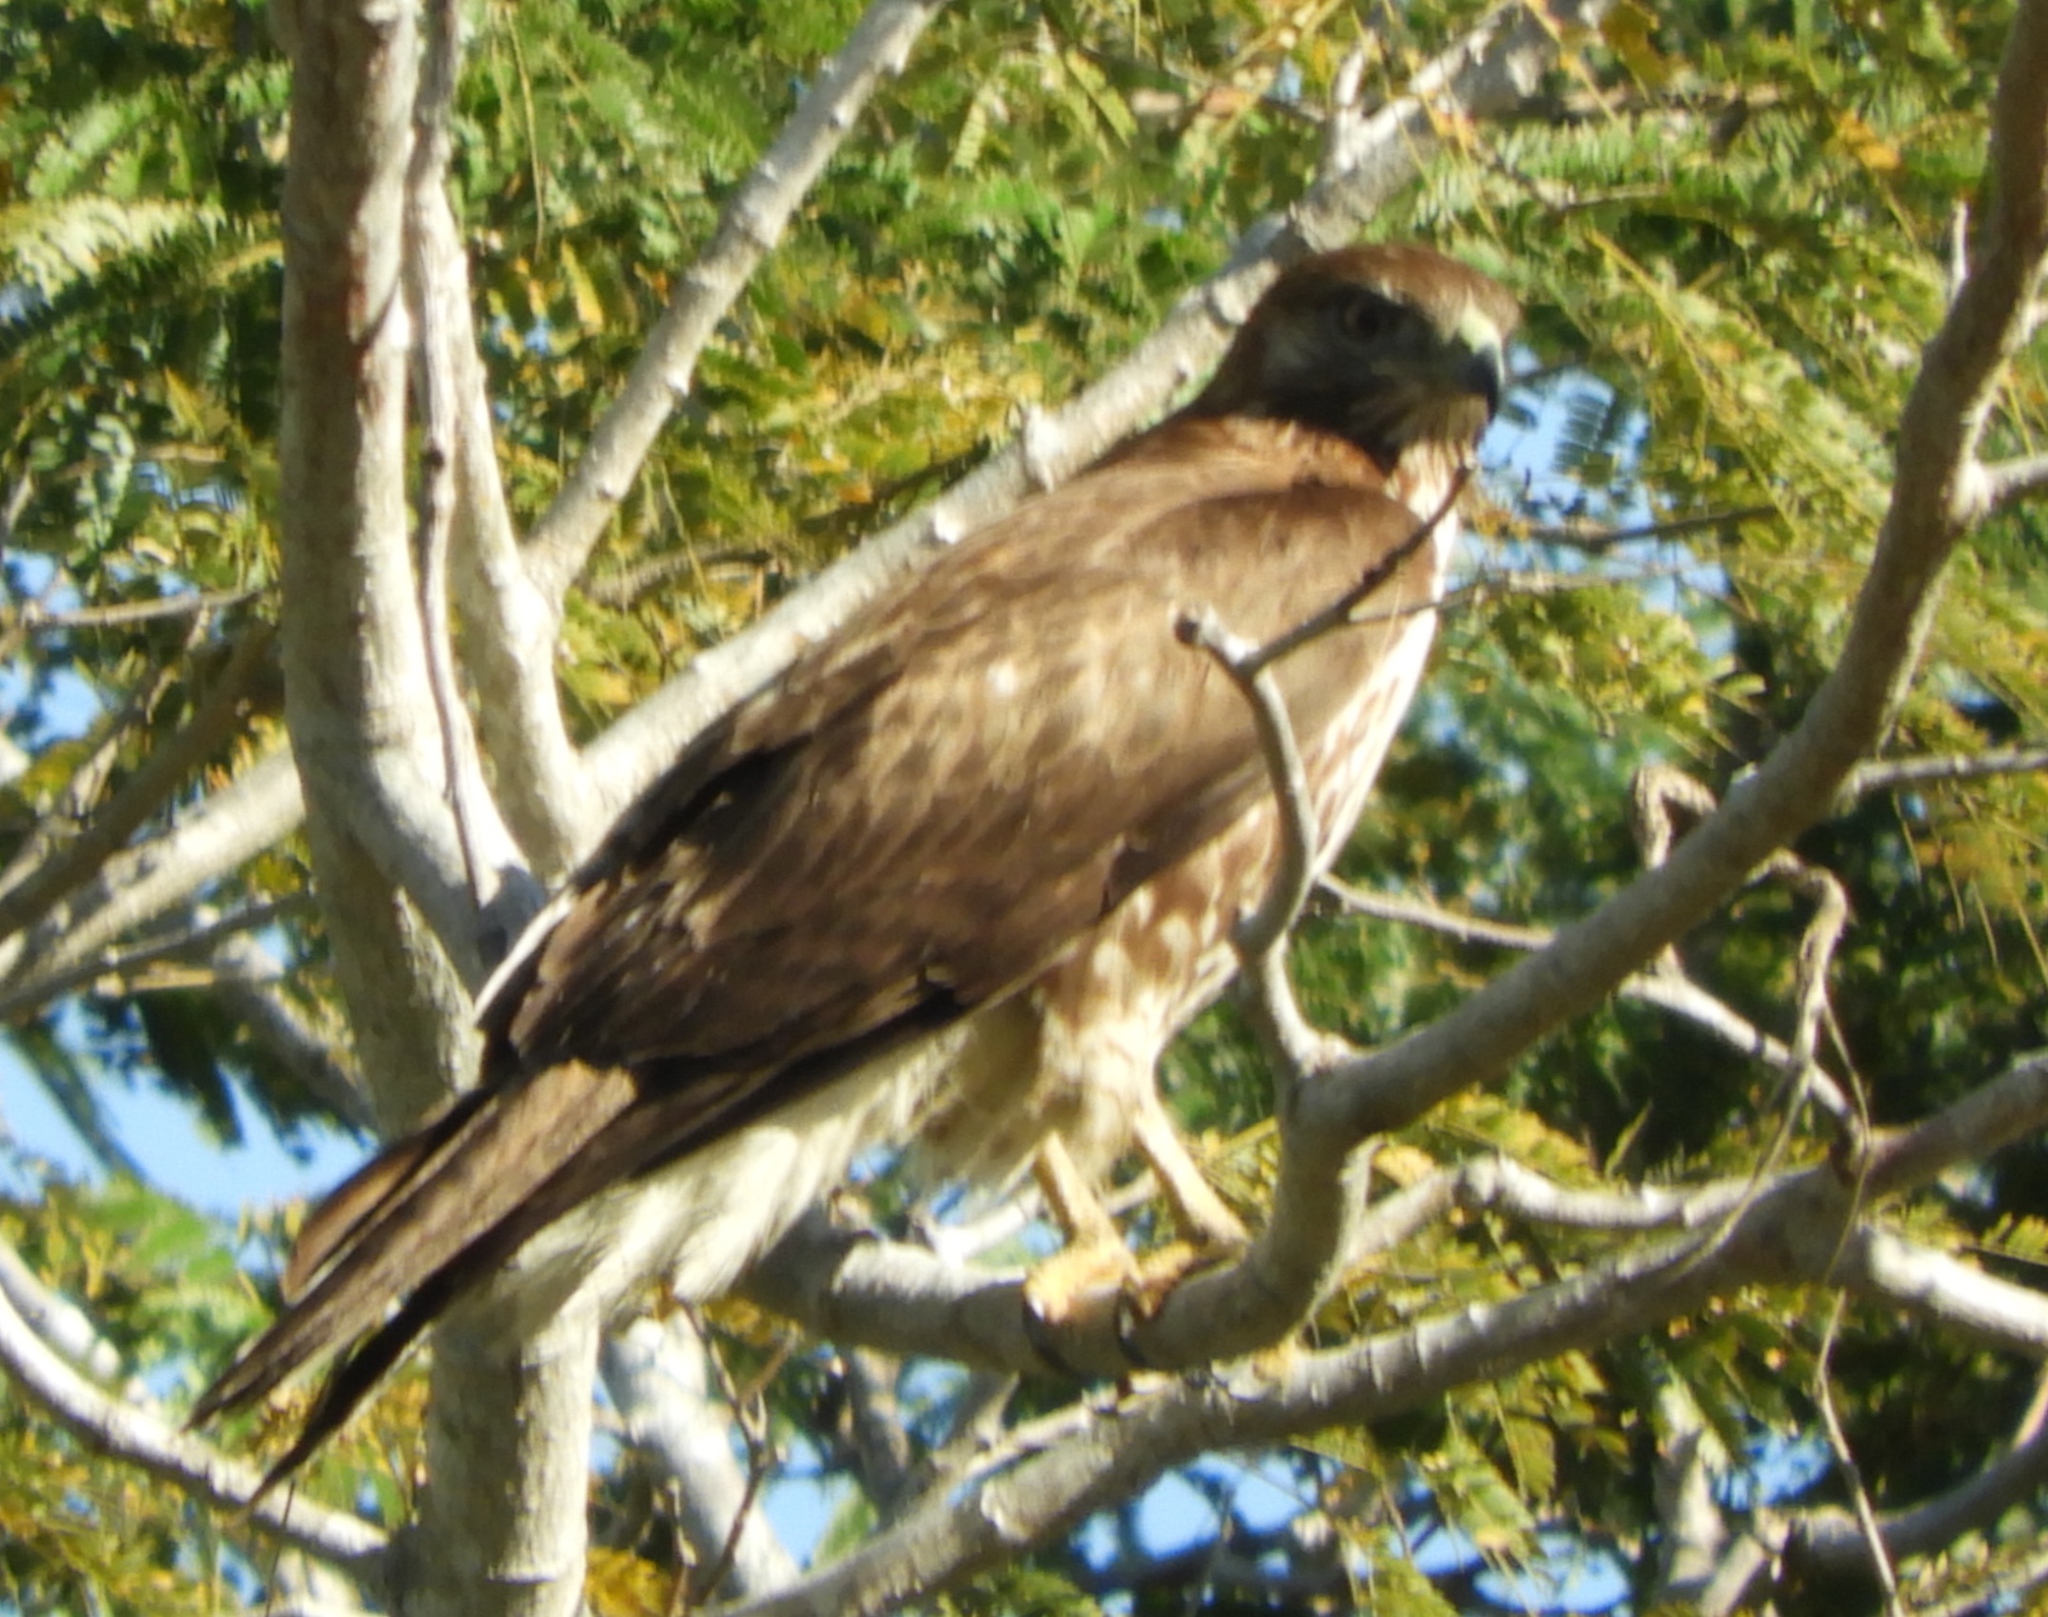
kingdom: Animalia
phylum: Chordata
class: Aves
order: Accipitriformes
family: Accipitridae
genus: Buteo
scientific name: Buteo jamaicensis
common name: Red-tailed hawk
